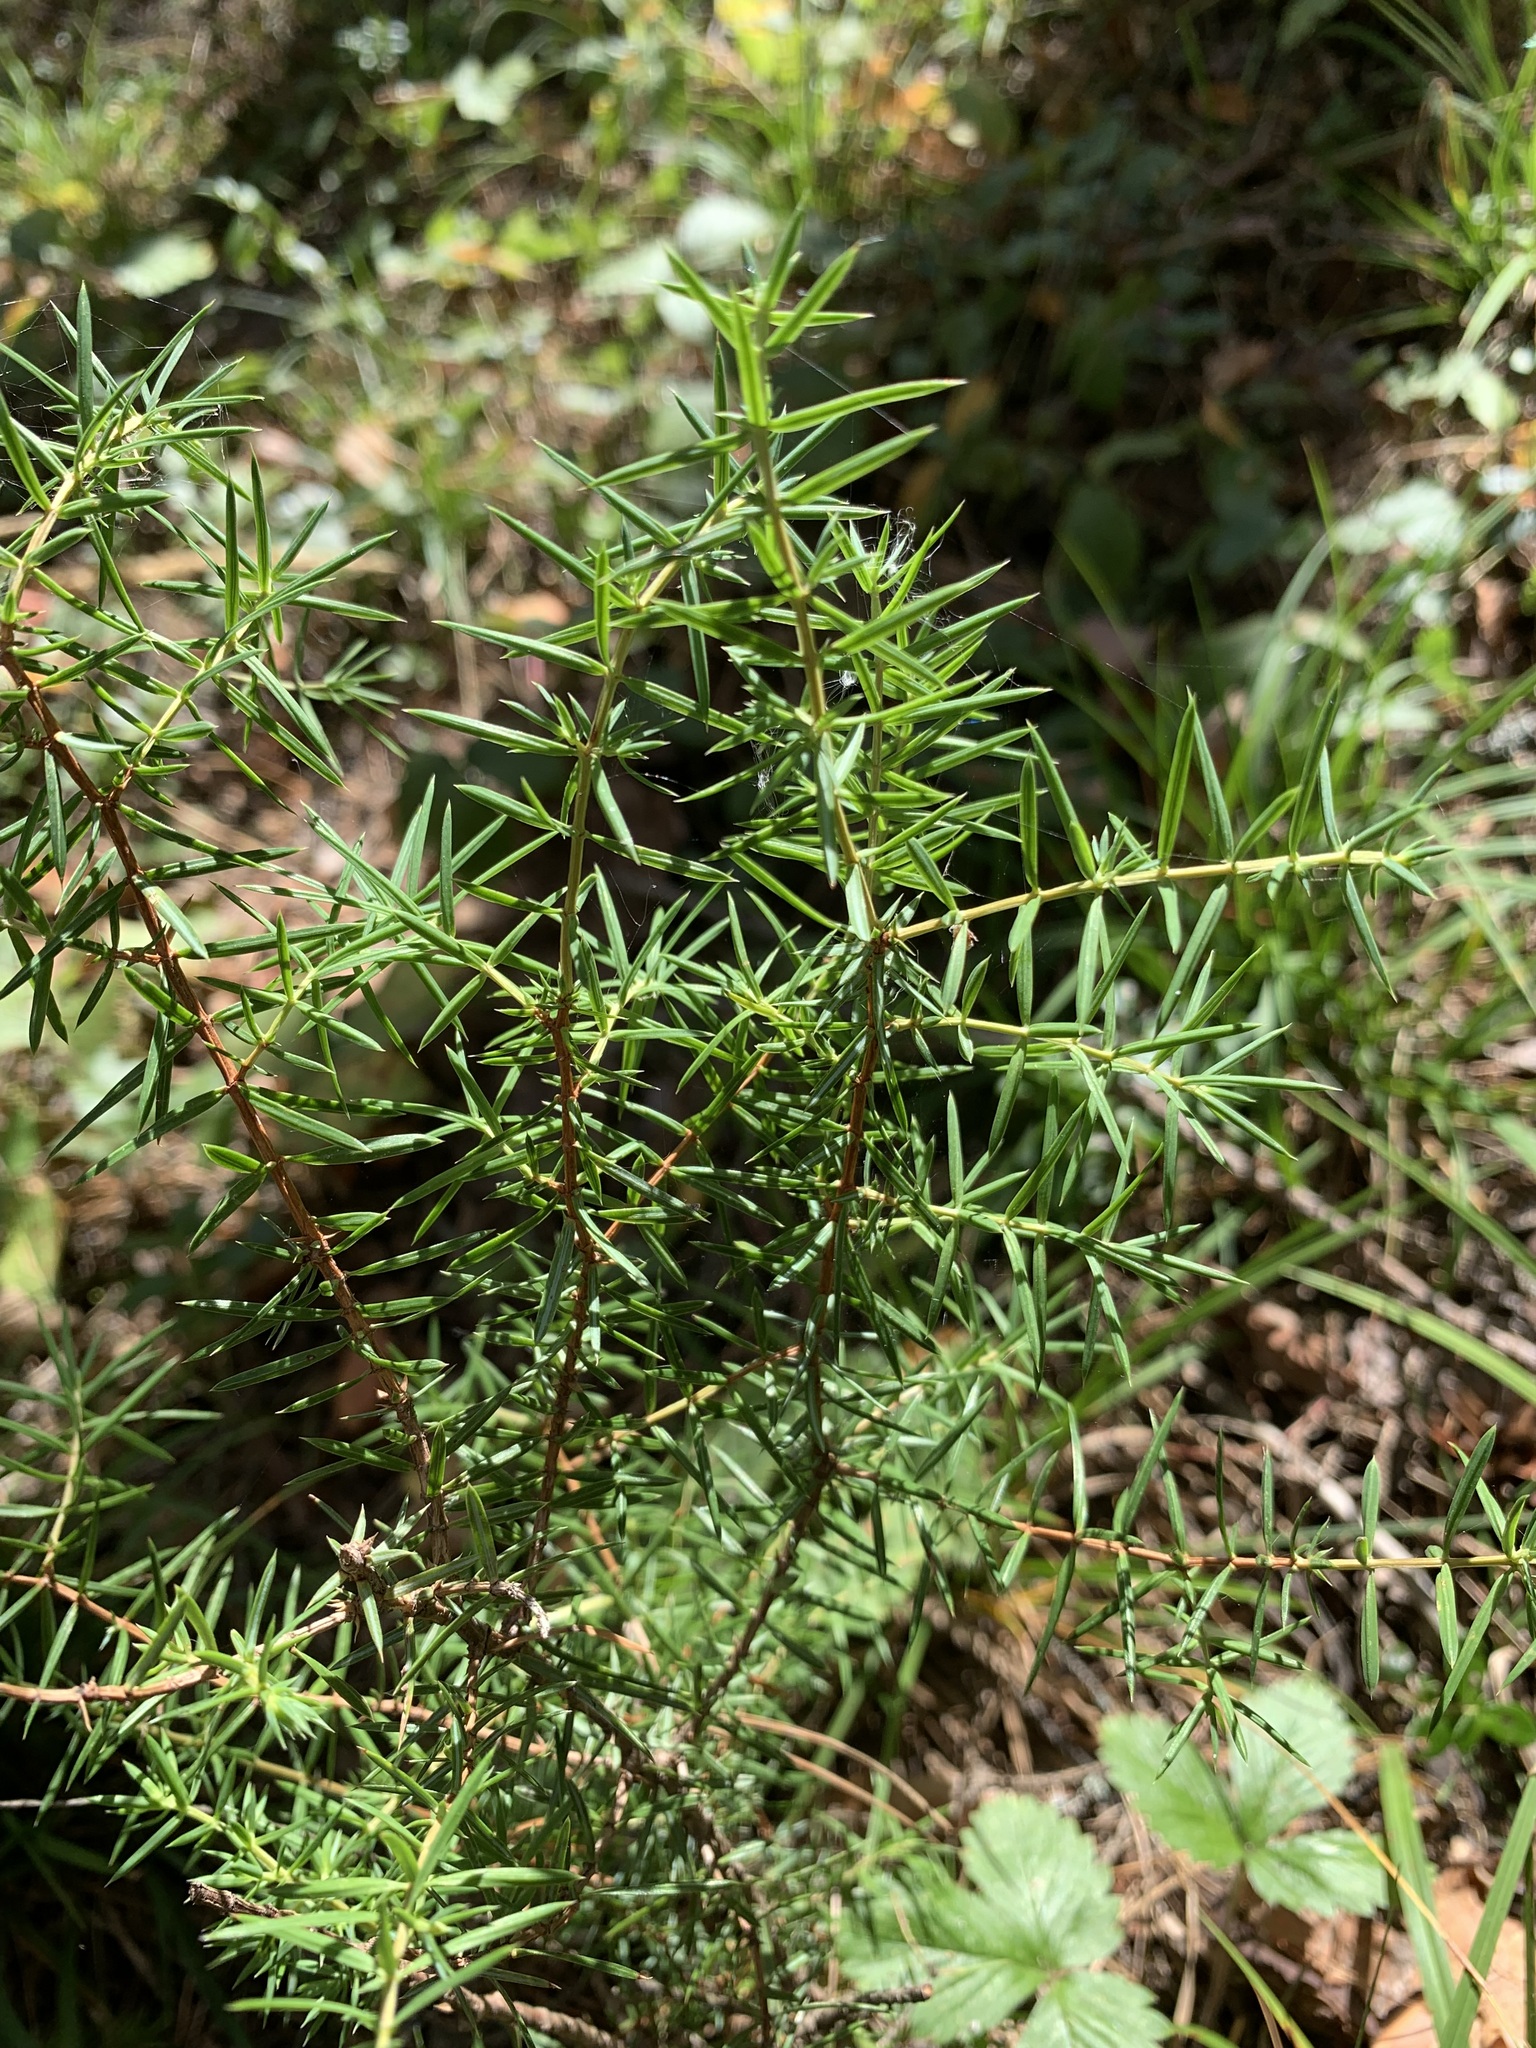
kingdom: Plantae
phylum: Tracheophyta
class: Pinopsida
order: Pinales
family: Cupressaceae
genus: Juniperus
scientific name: Juniperus communis
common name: Common juniper
